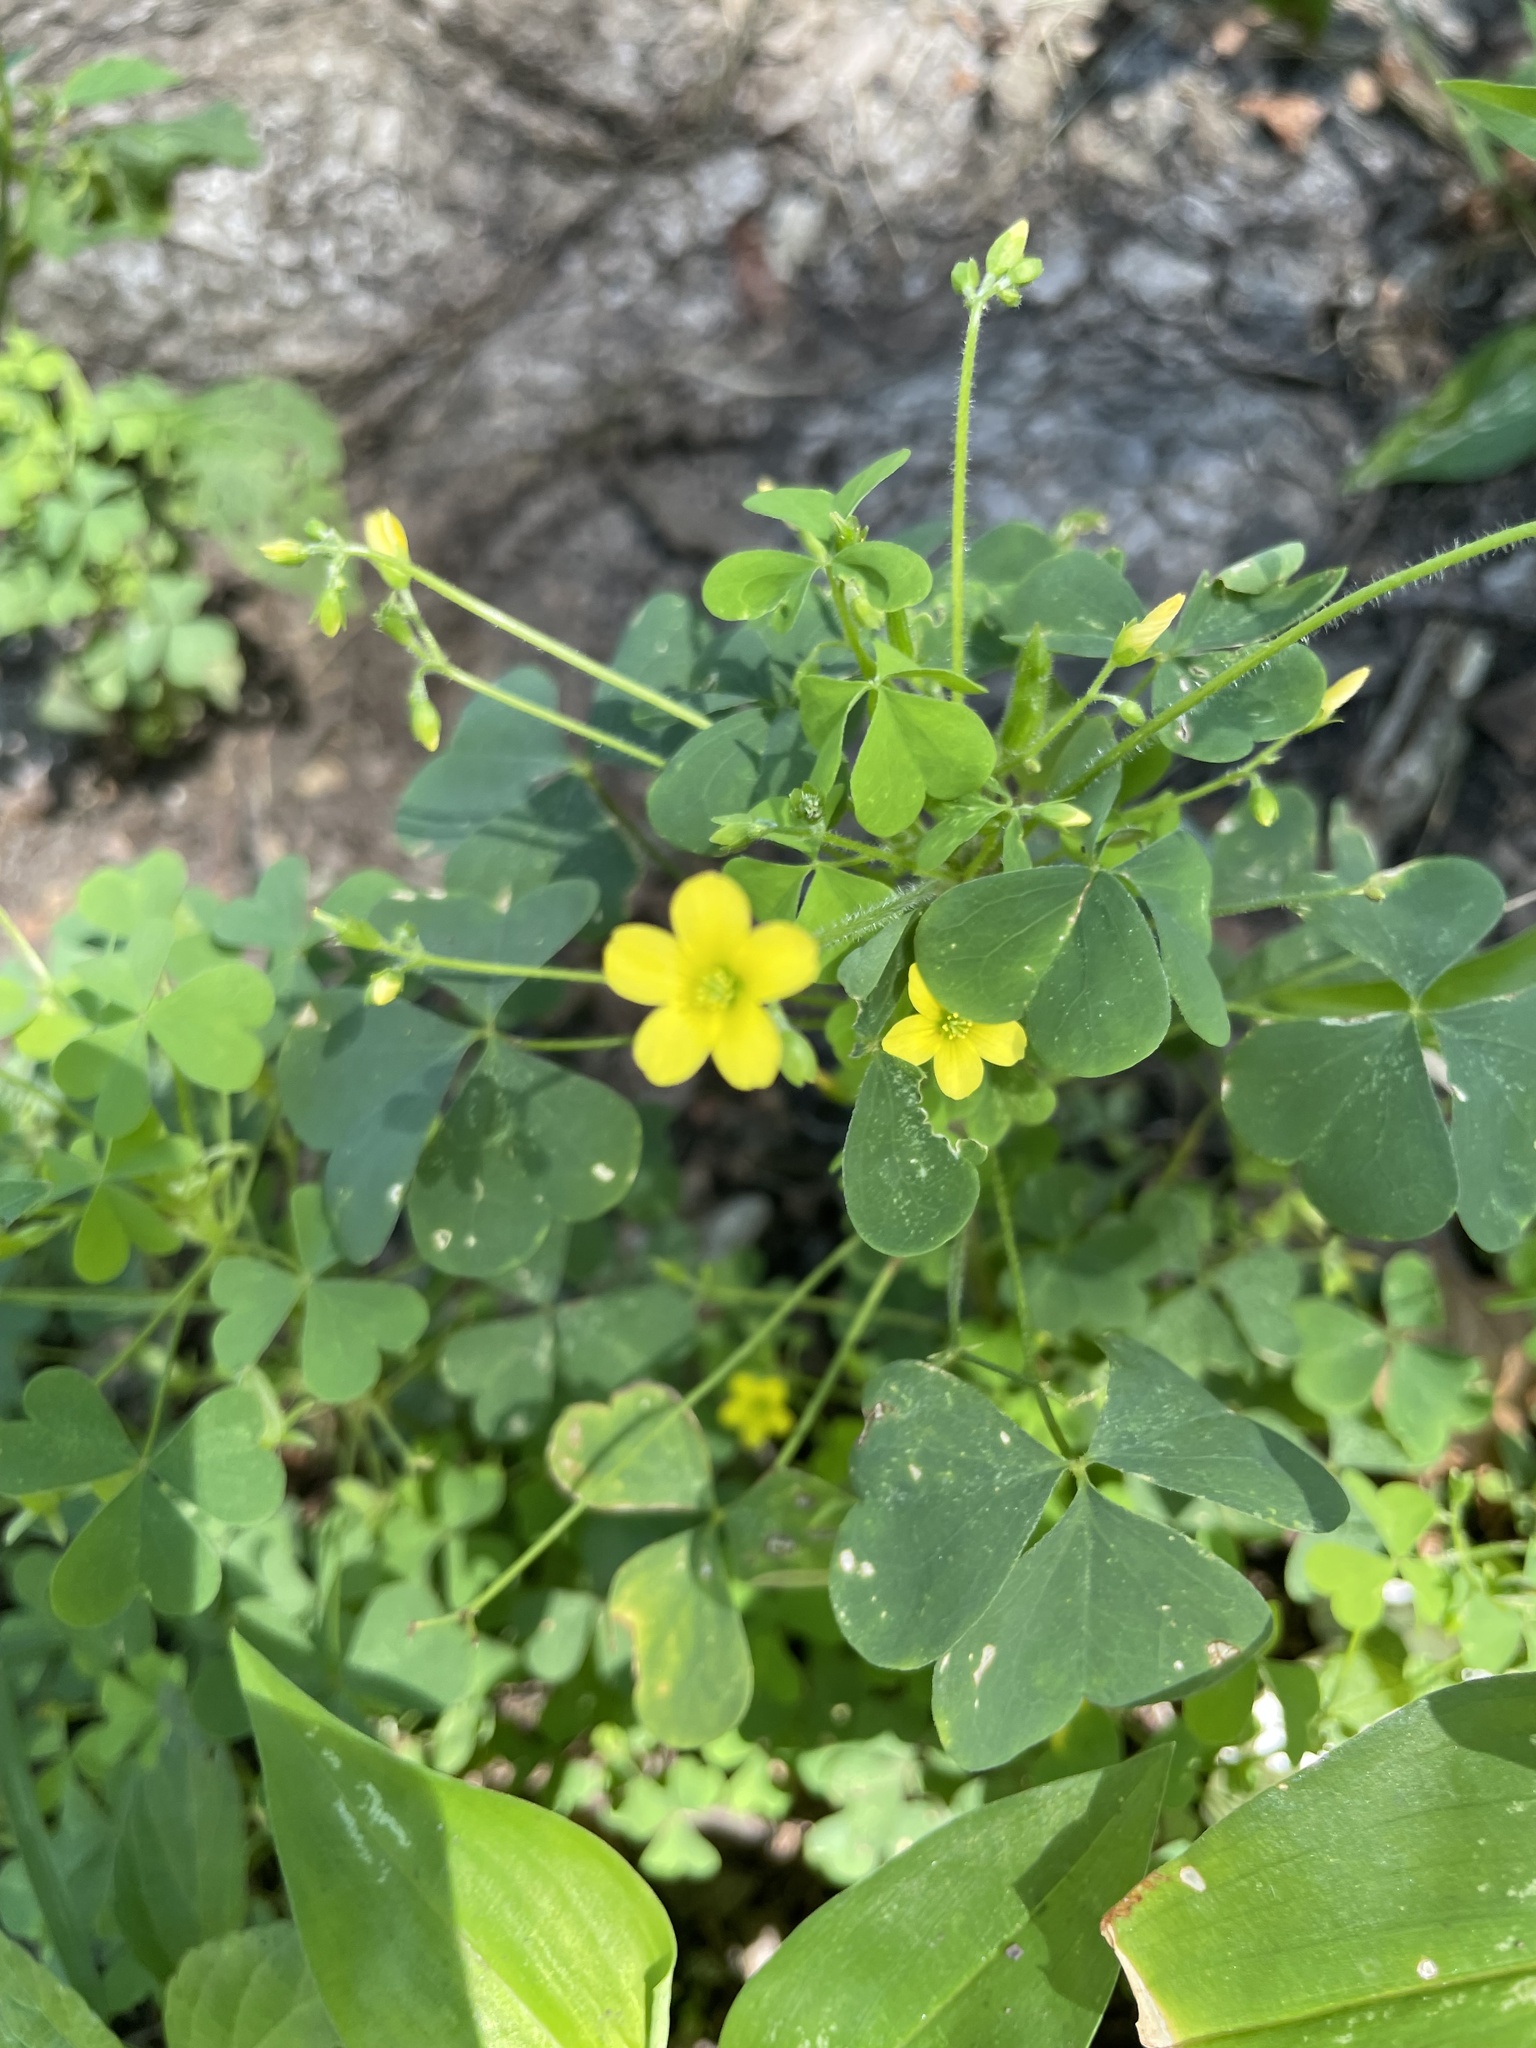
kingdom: Plantae
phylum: Tracheophyta
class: Magnoliopsida
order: Oxalidales
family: Oxalidaceae
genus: Oxalis
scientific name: Oxalis stricta
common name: Upright yellow-sorrel
